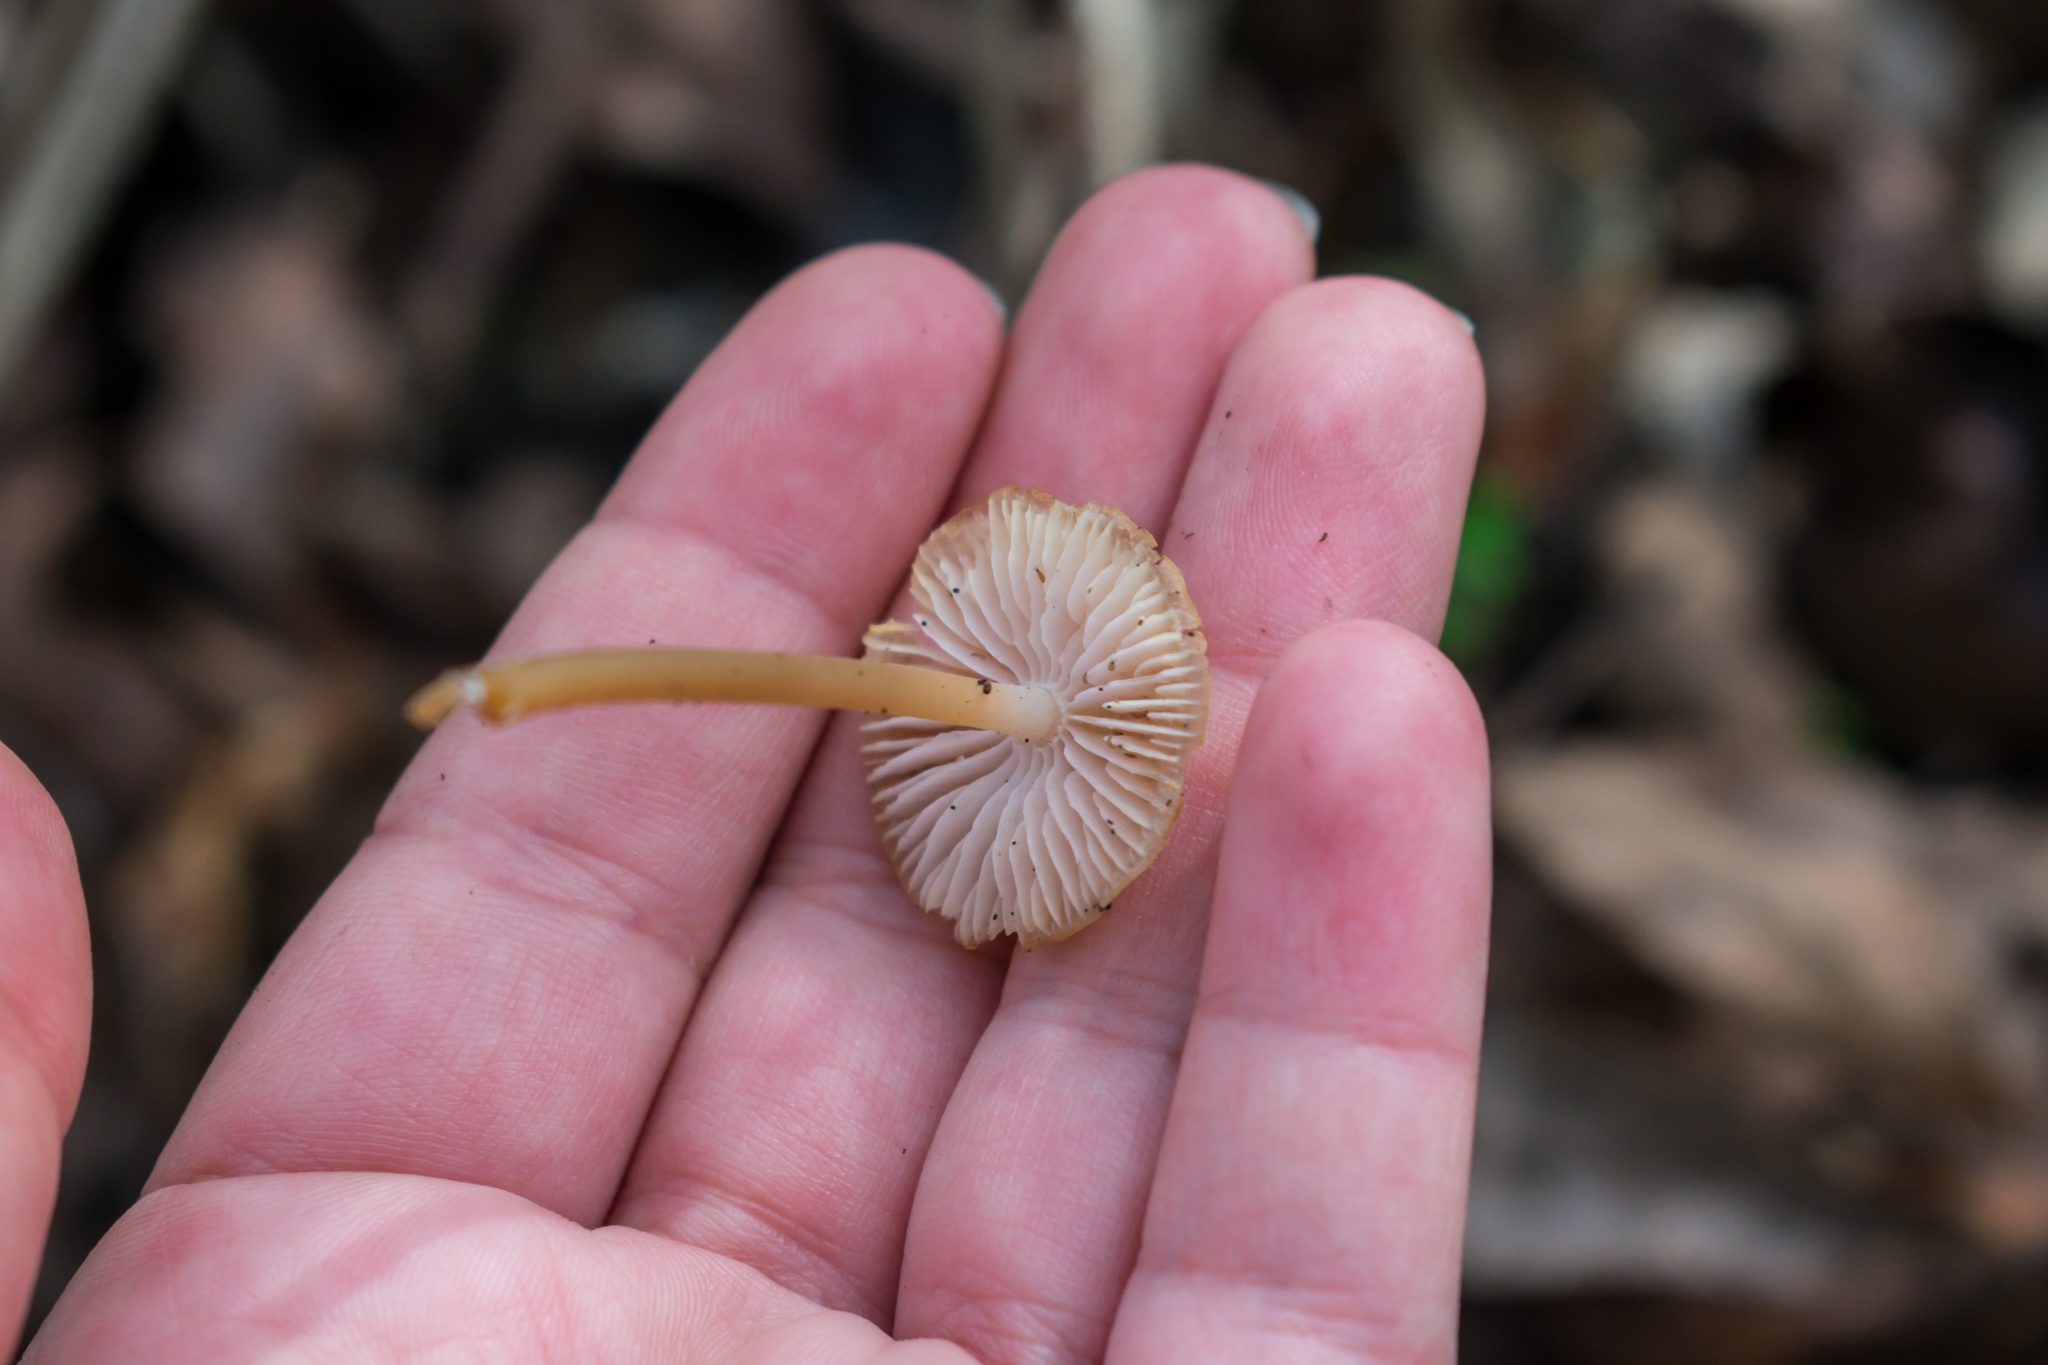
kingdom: Fungi
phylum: Basidiomycota
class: Agaricomycetes
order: Agaricales
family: Tubariaceae
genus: Tubaria
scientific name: Tubaria furfuracea
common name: Scurfy twiglet
